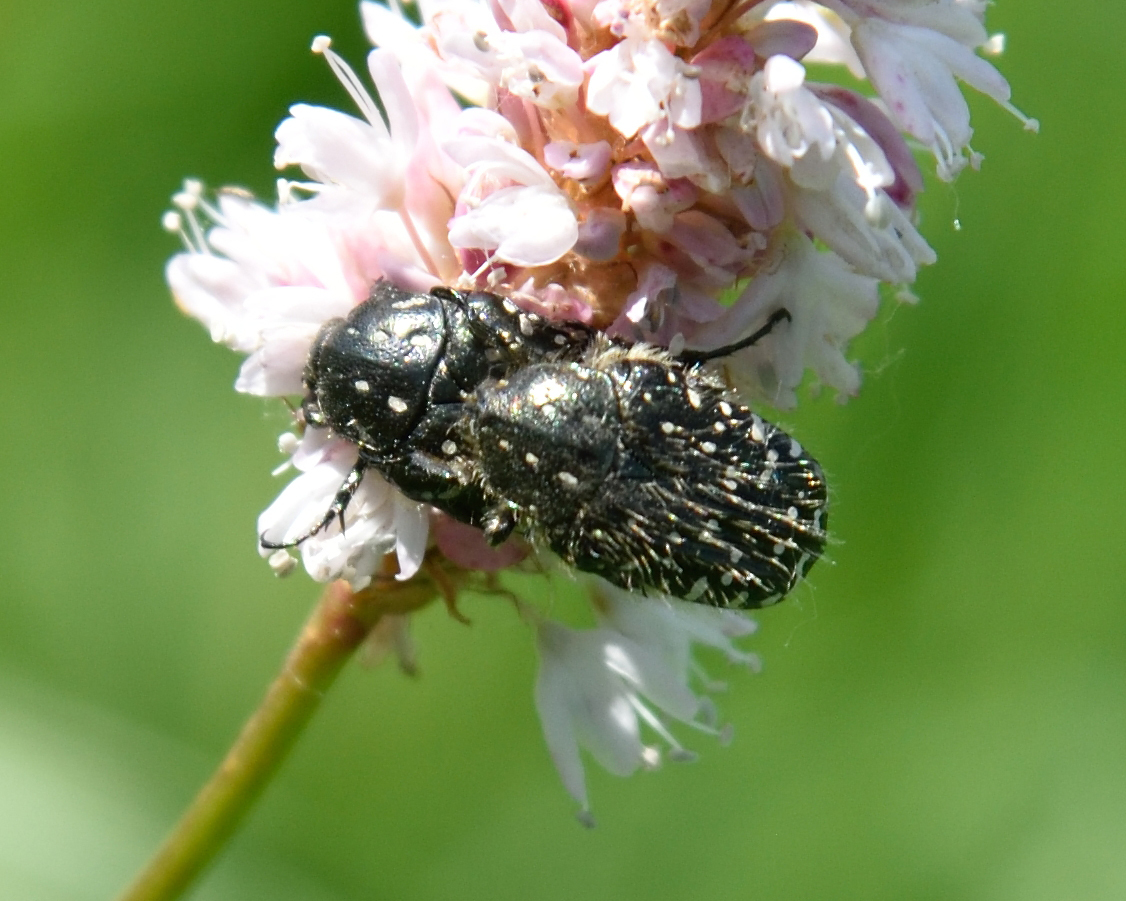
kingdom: Animalia
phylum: Arthropoda
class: Insecta
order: Coleoptera
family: Scarabaeidae
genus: Oxythyrea
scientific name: Oxythyrea funesta
